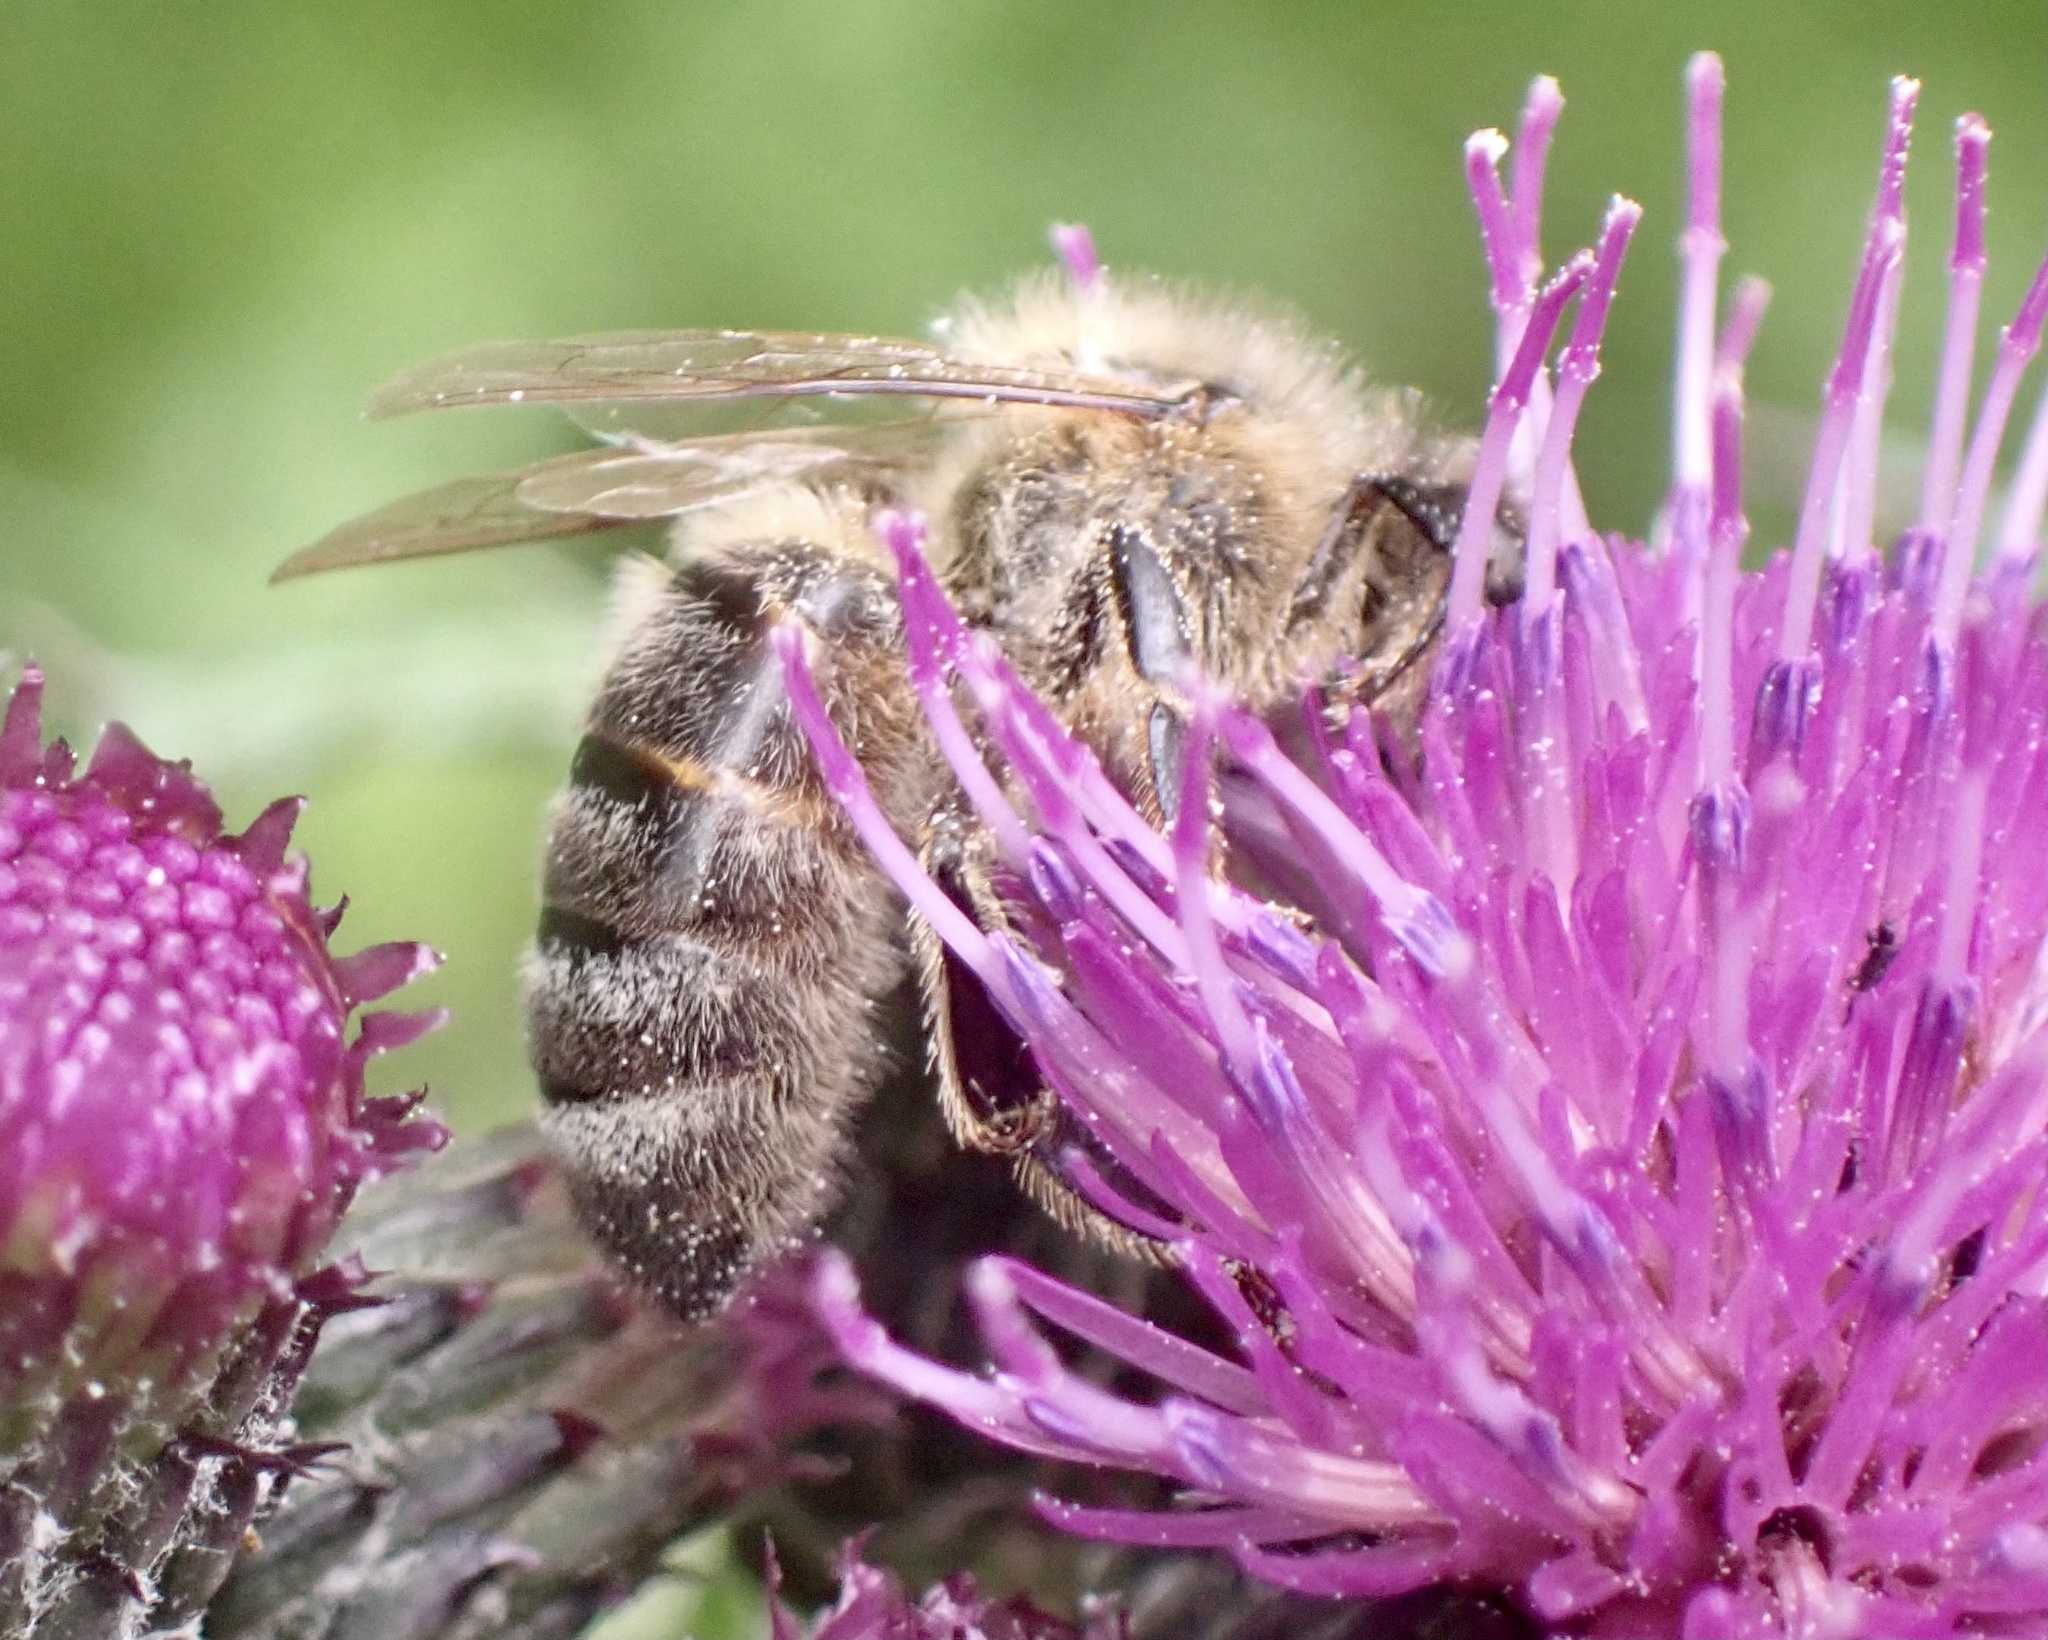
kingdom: Animalia
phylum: Arthropoda
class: Insecta
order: Hymenoptera
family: Apidae
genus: Apis
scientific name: Apis mellifera
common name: Honey bee
